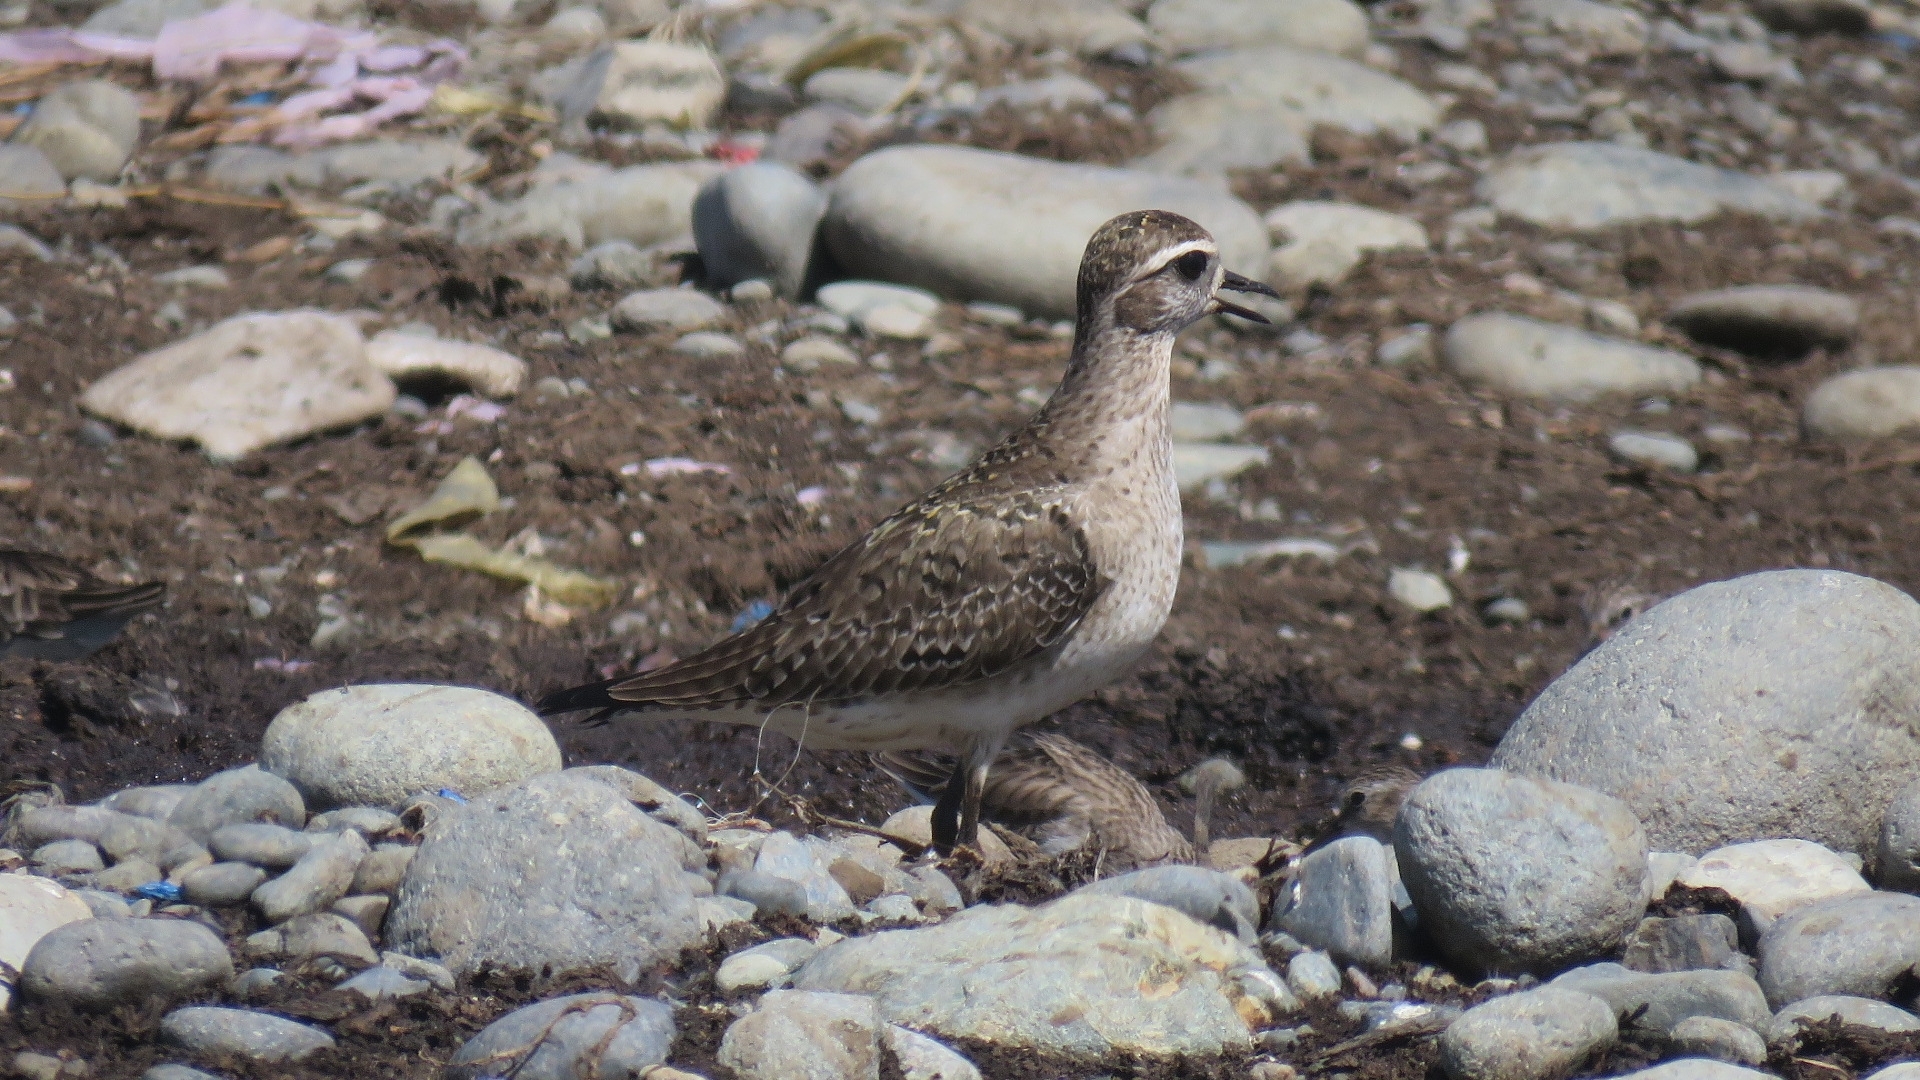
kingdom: Animalia
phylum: Chordata
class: Aves
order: Charadriiformes
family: Charadriidae
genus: Pluvialis
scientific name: Pluvialis dominica
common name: American golden plover
